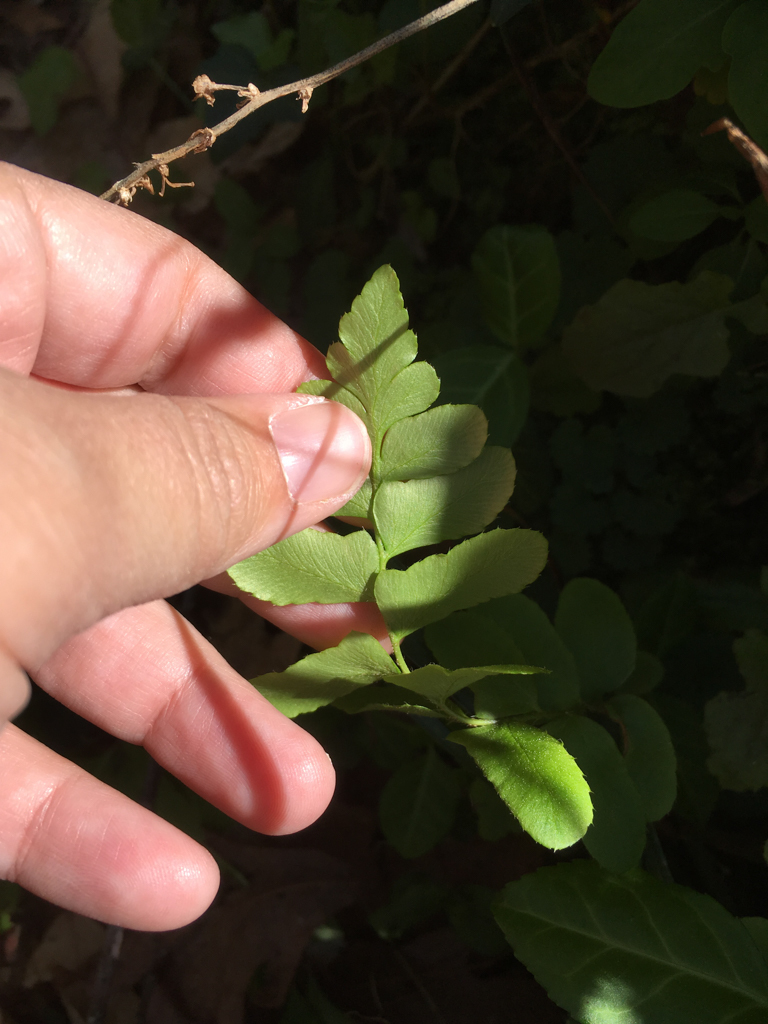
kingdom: Plantae
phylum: Tracheophyta
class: Polypodiopsida
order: Polypodiales
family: Dryopteridaceae
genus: Polystichum
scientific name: Polystichum acrostichoides
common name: Christmas fern
